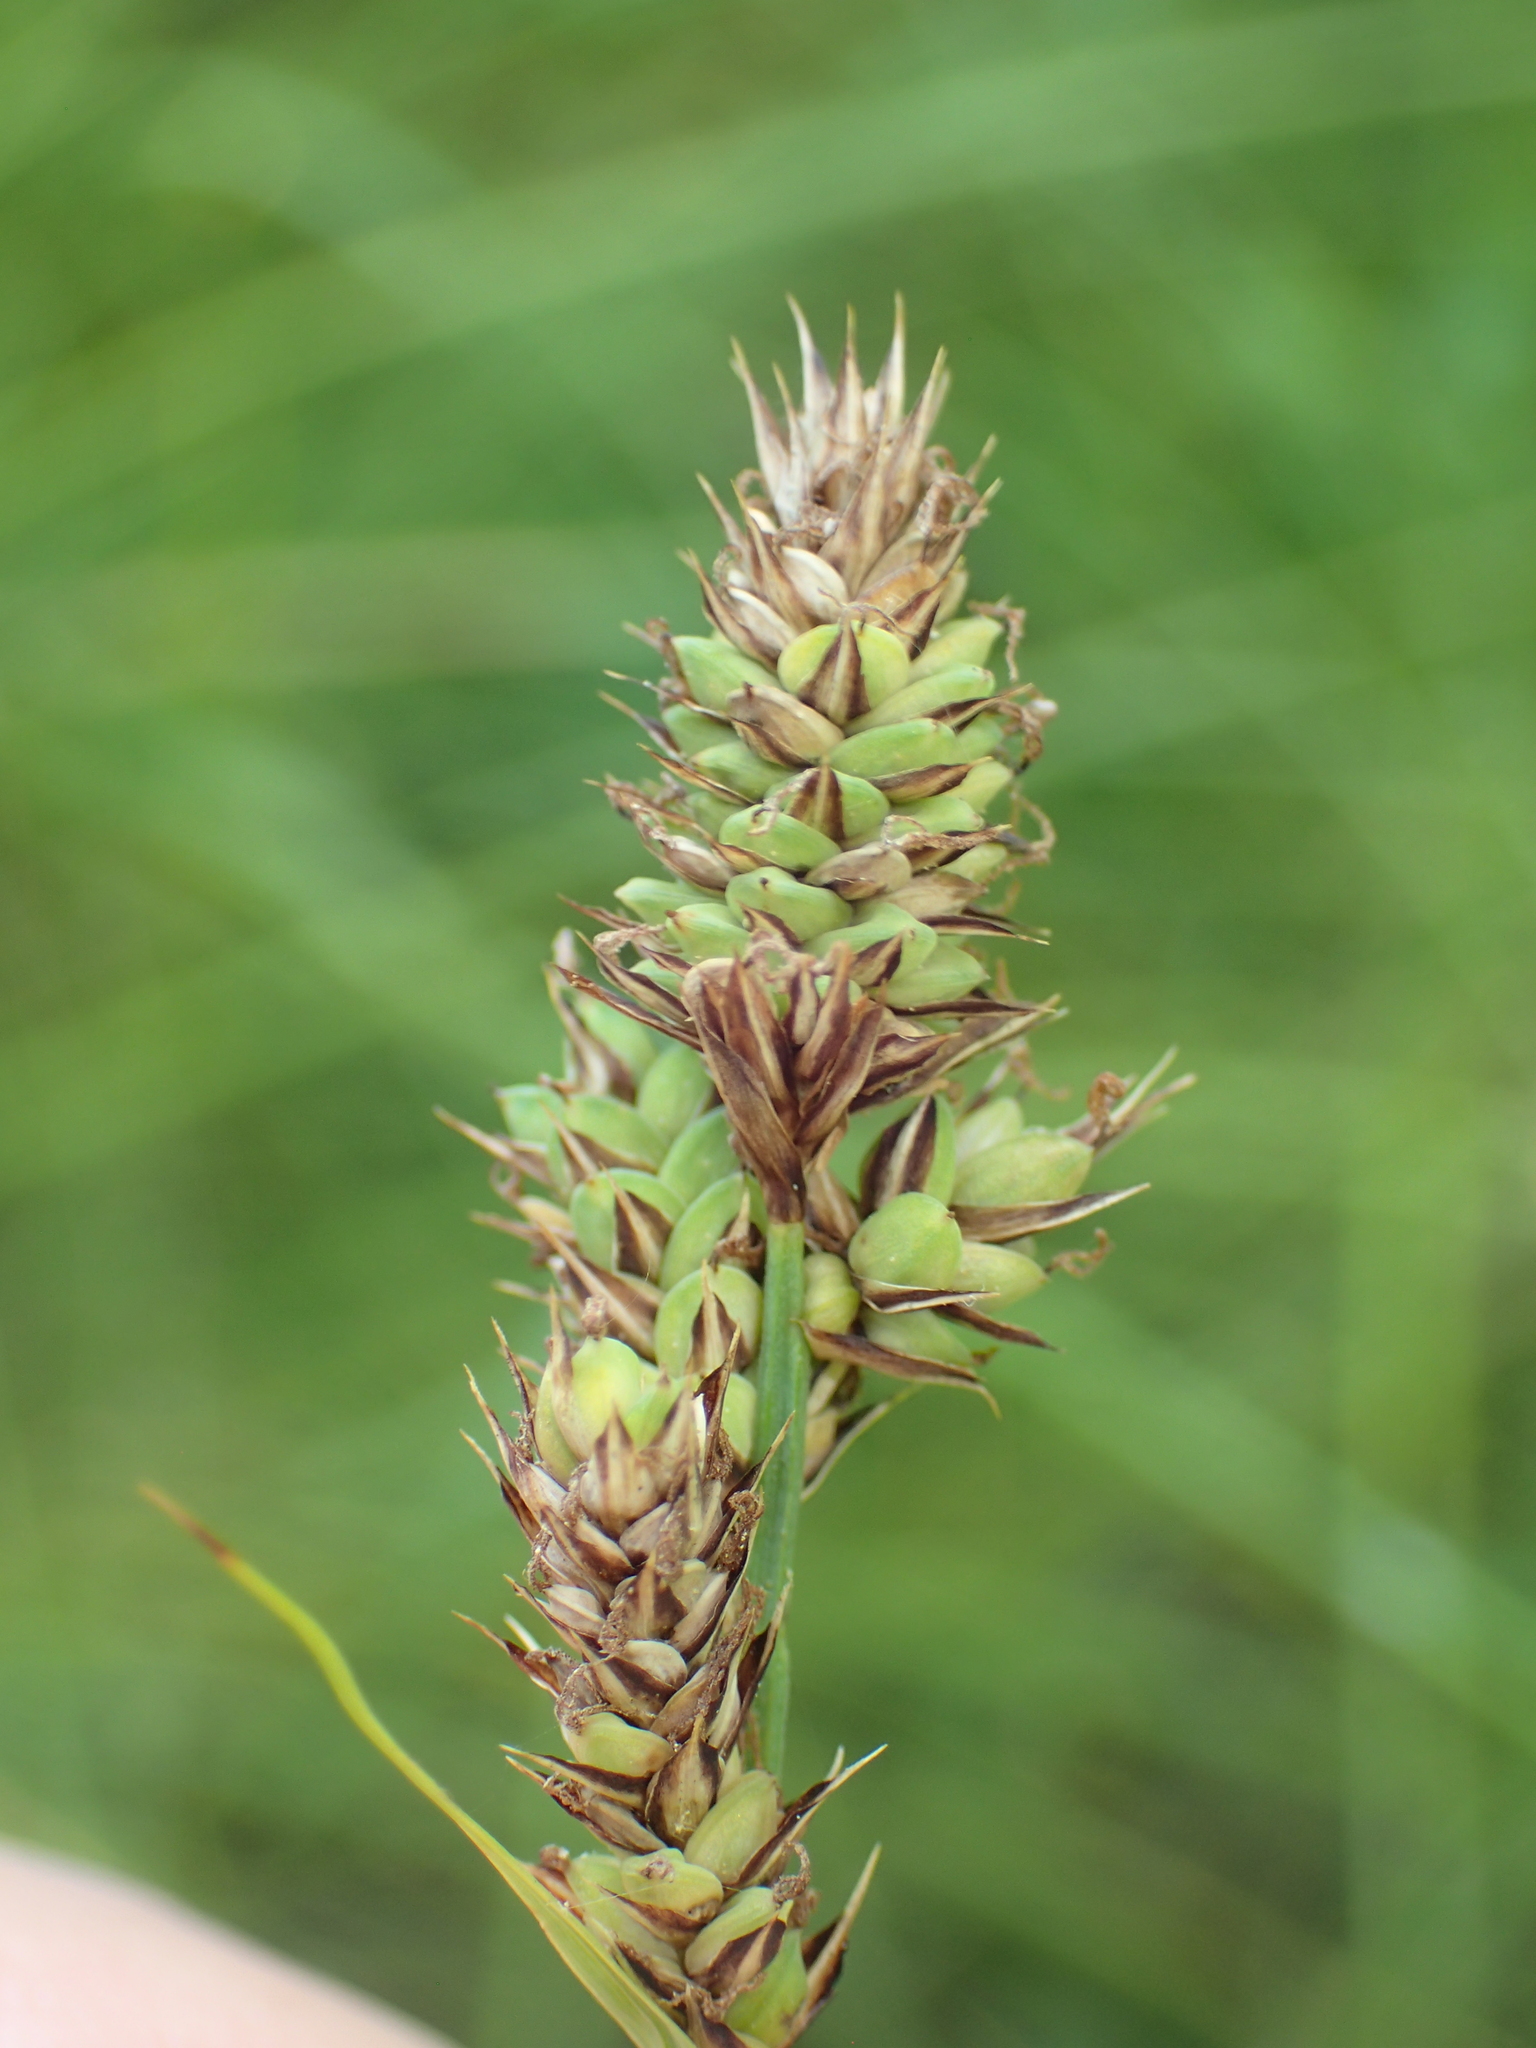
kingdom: Plantae
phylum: Tracheophyta
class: Liliopsida
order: Poales
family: Cyperaceae
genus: Carex
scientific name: Carex buxbaumii
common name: Club sedge
